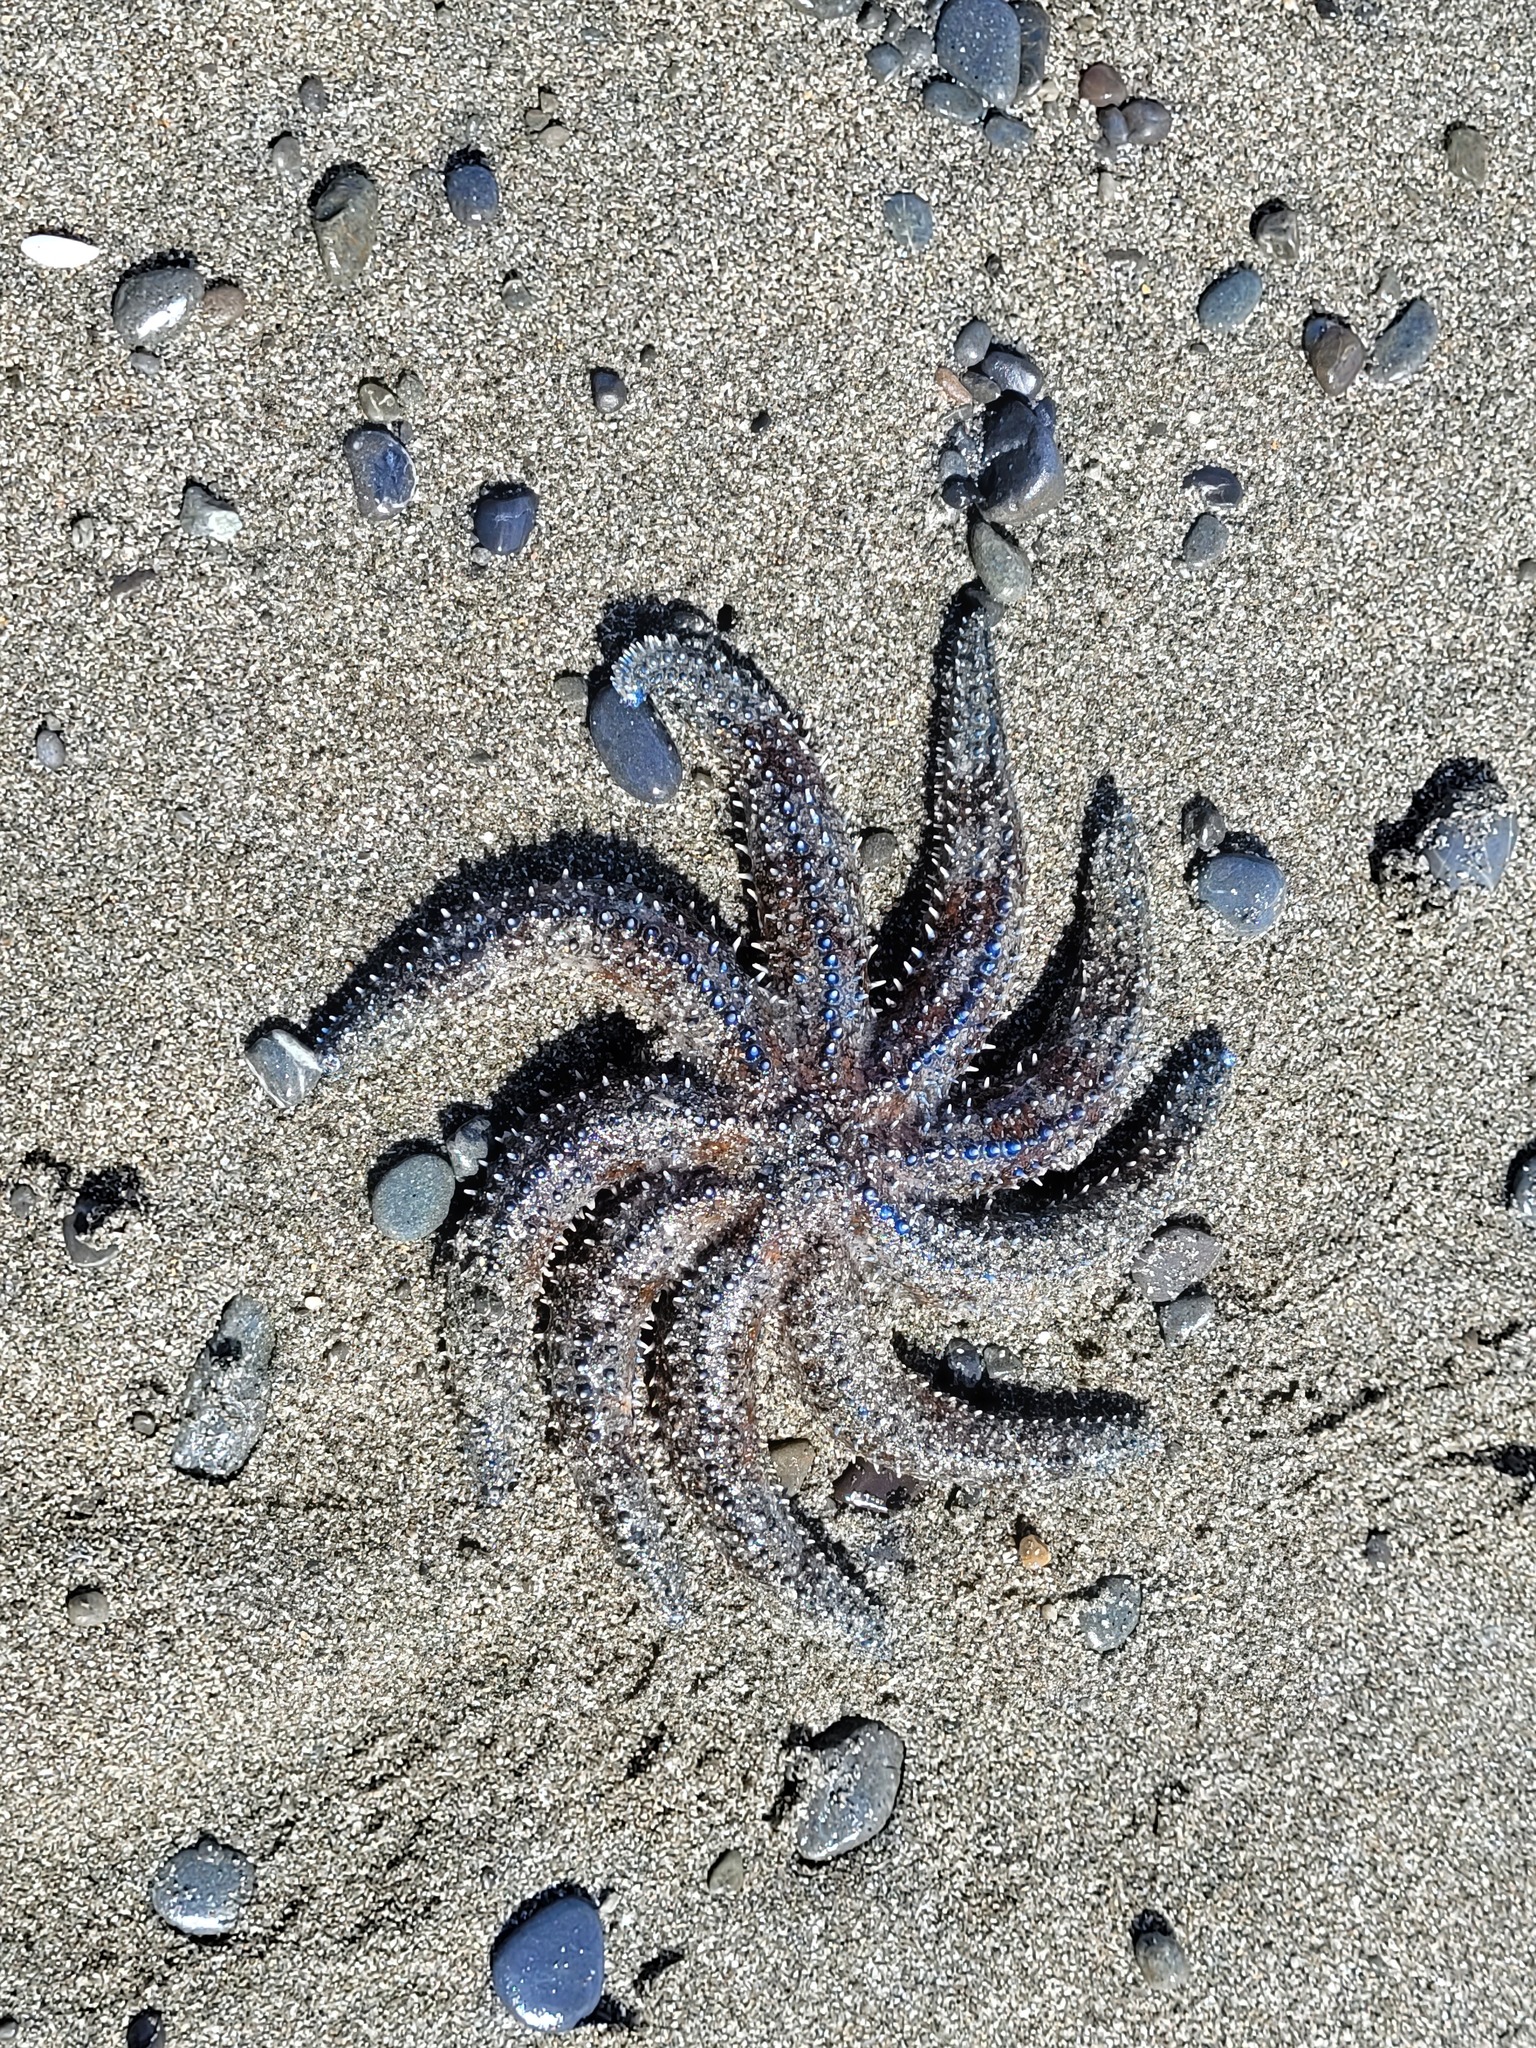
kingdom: Animalia
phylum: Echinodermata
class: Asteroidea
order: Forcipulatida
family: Asteriidae
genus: Coscinasterias
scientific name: Coscinasterias muricata
